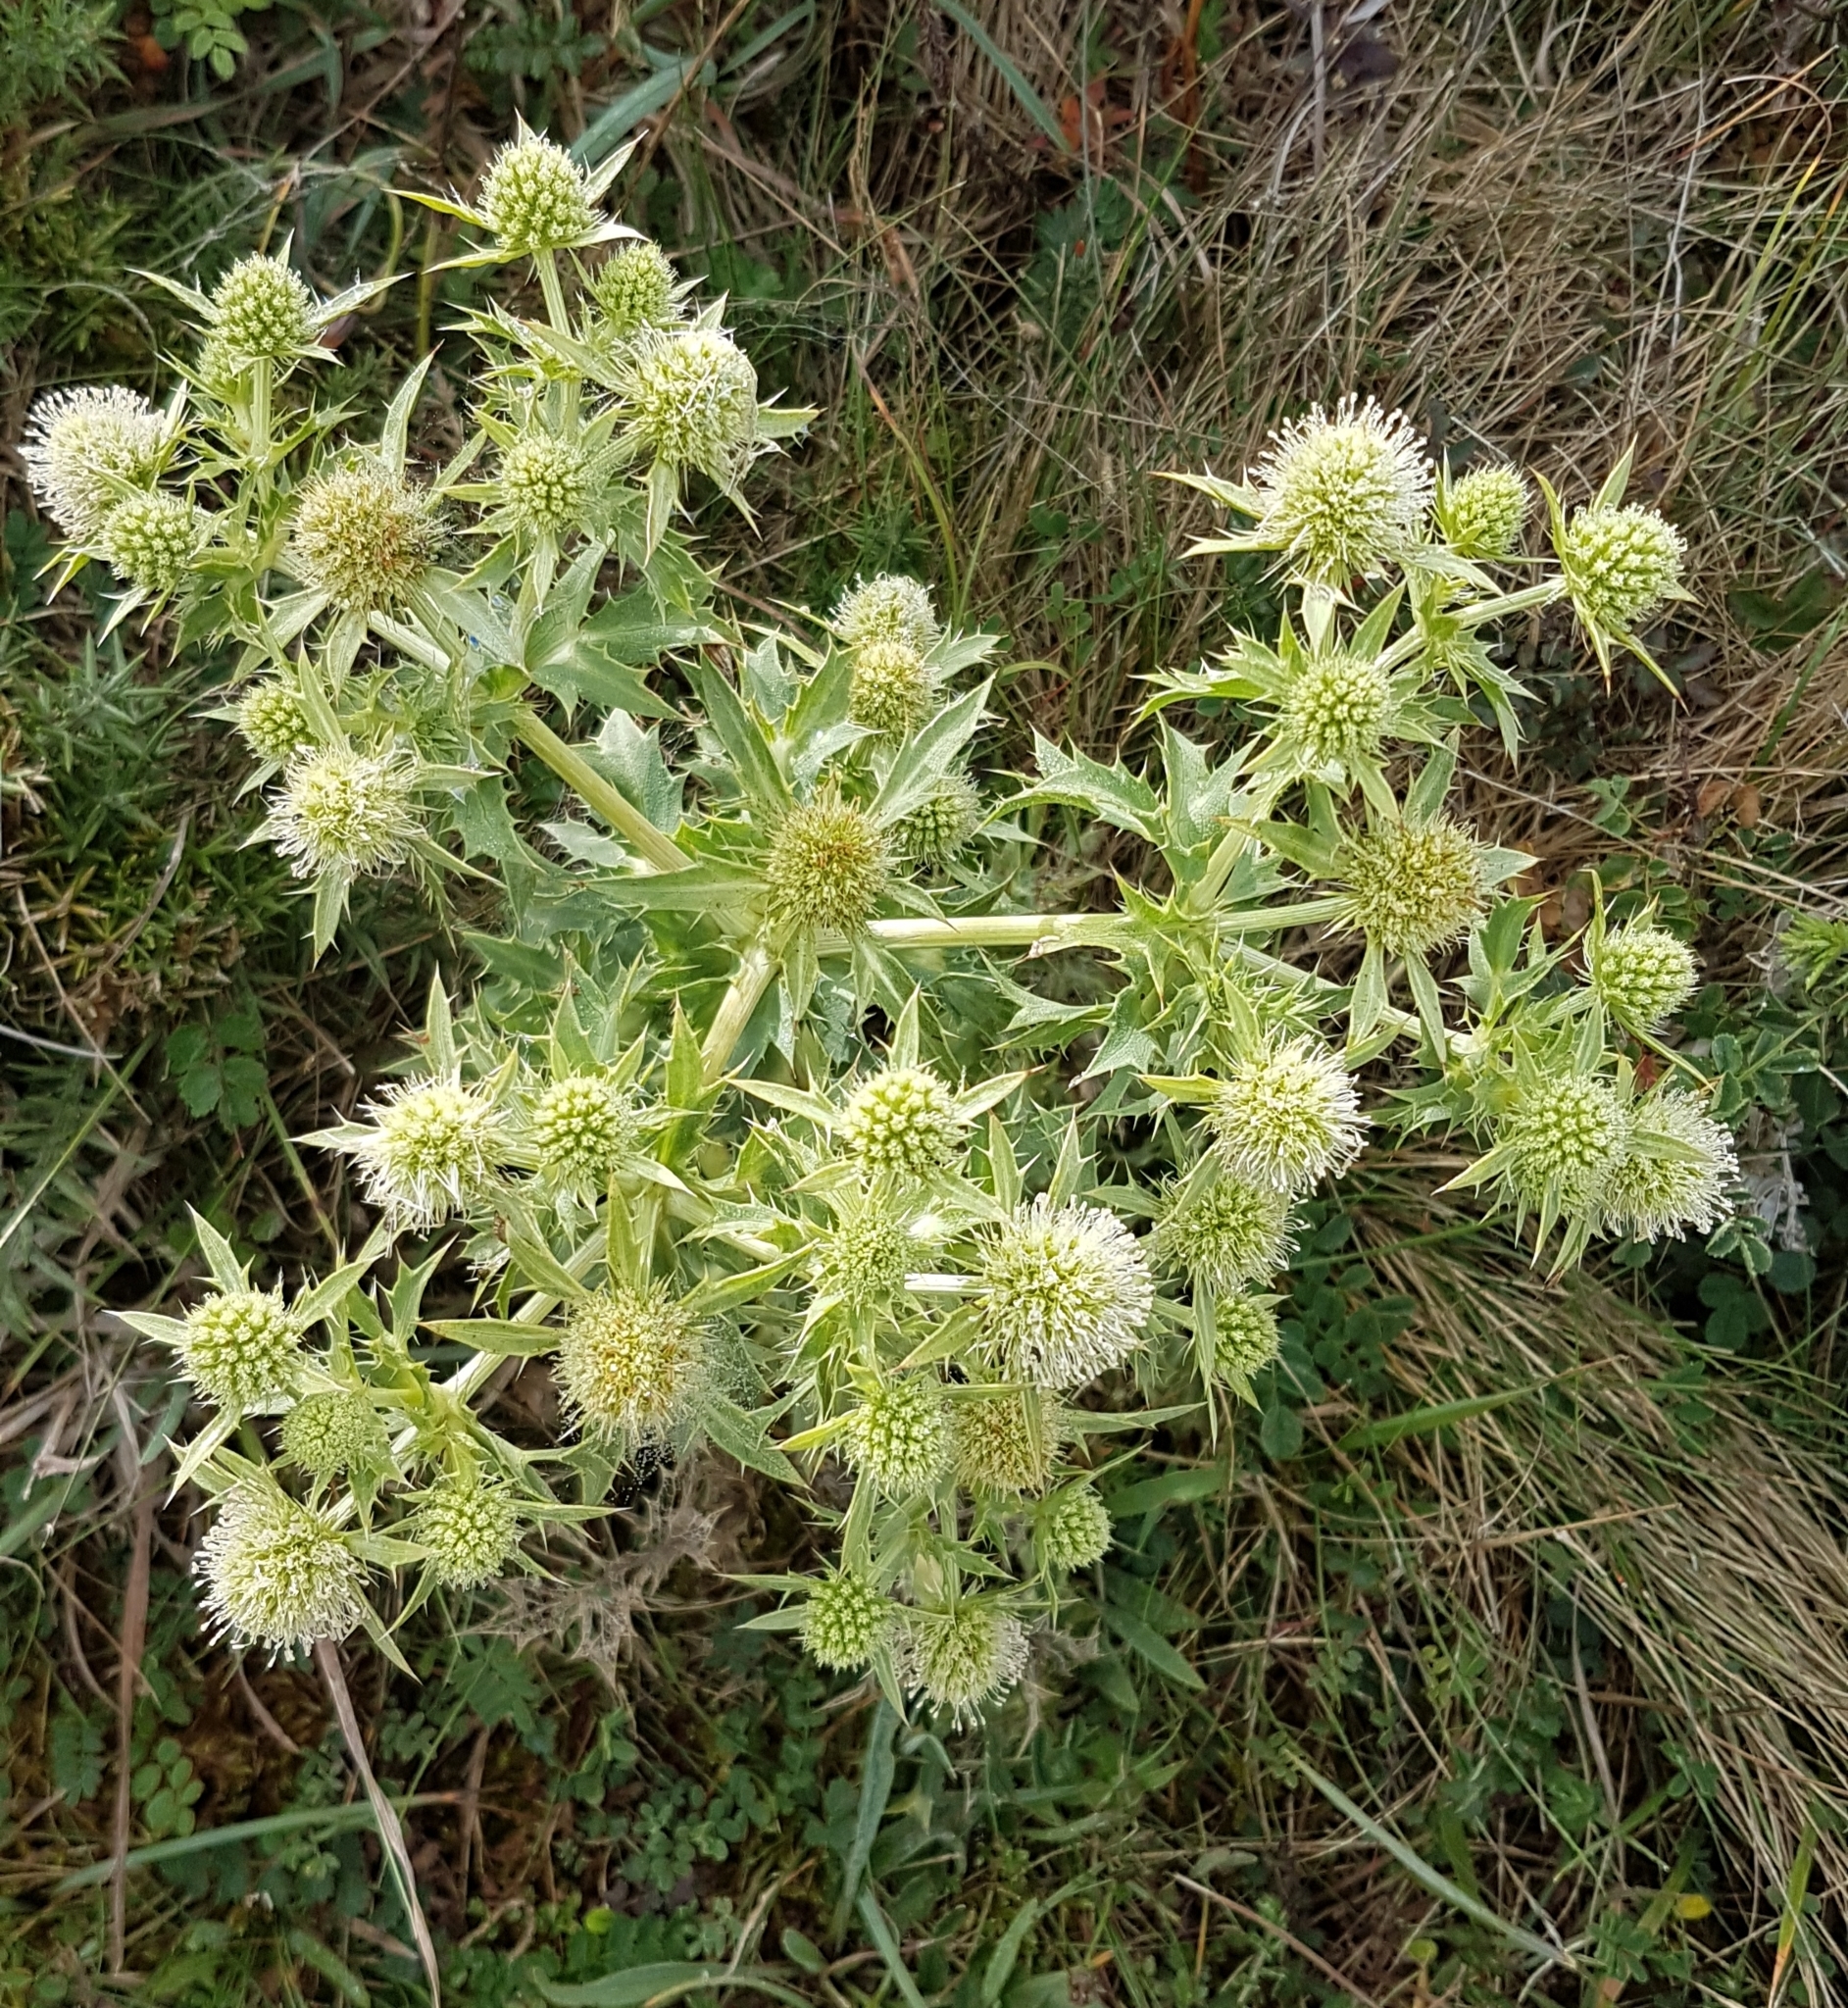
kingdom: Plantae
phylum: Tracheophyta
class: Magnoliopsida
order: Apiales
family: Apiaceae
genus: Eryngium
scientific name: Eryngium campestre
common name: Field eryngo
